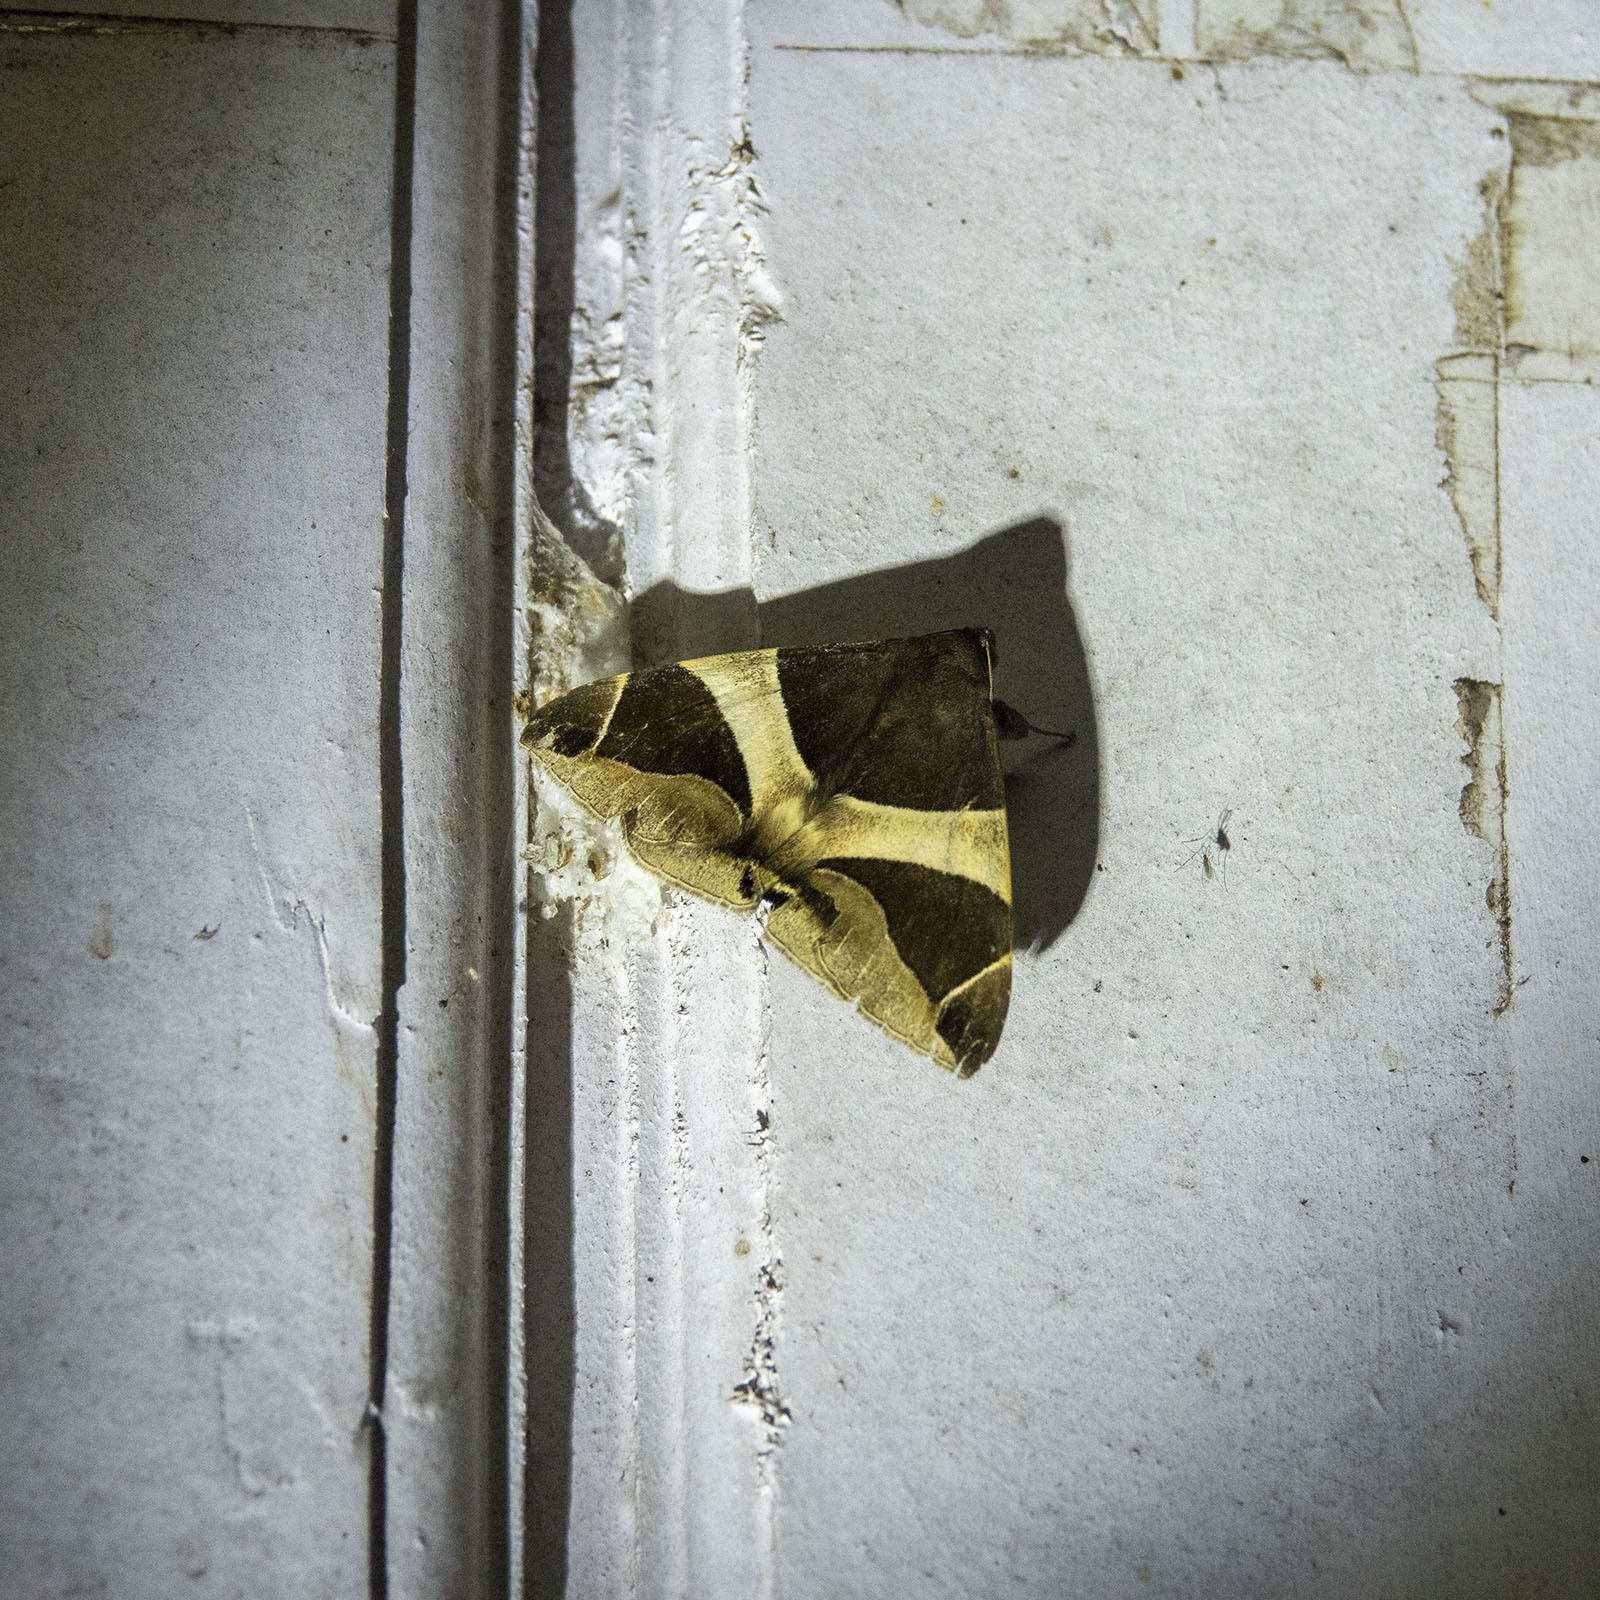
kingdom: Animalia
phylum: Arthropoda
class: Insecta
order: Lepidoptera
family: Erebidae
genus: Bastilla
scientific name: Bastilla crameri
